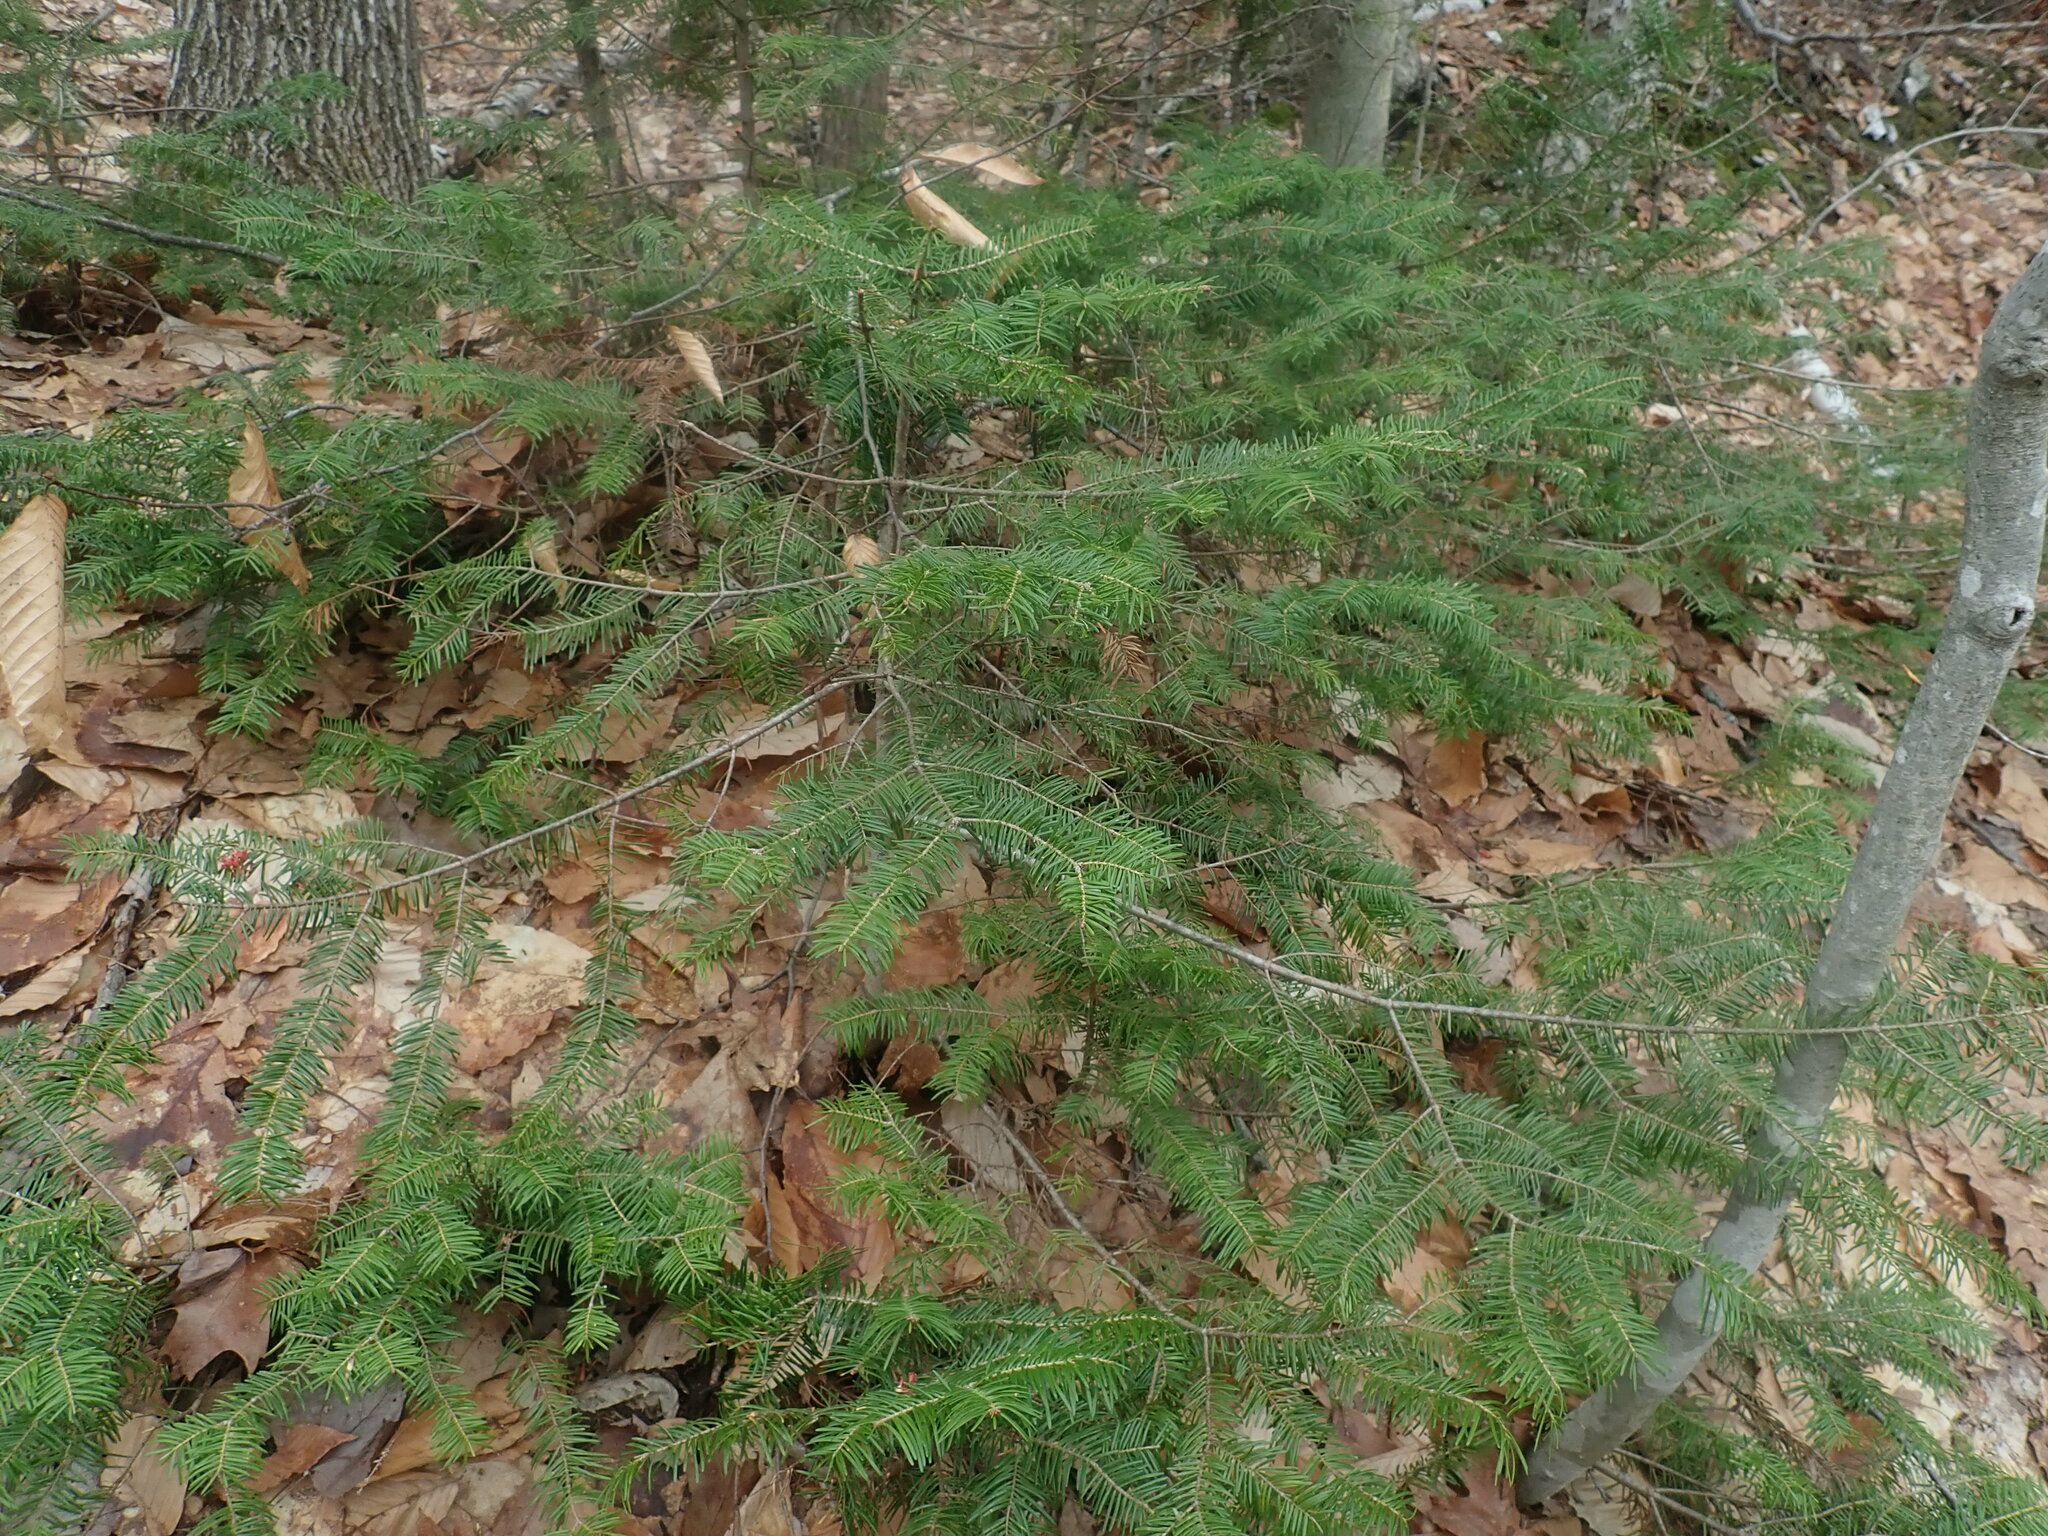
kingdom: Plantae
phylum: Tracheophyta
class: Pinopsida
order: Pinales
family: Pinaceae
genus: Abies
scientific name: Abies balsamea
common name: Balsam fir
